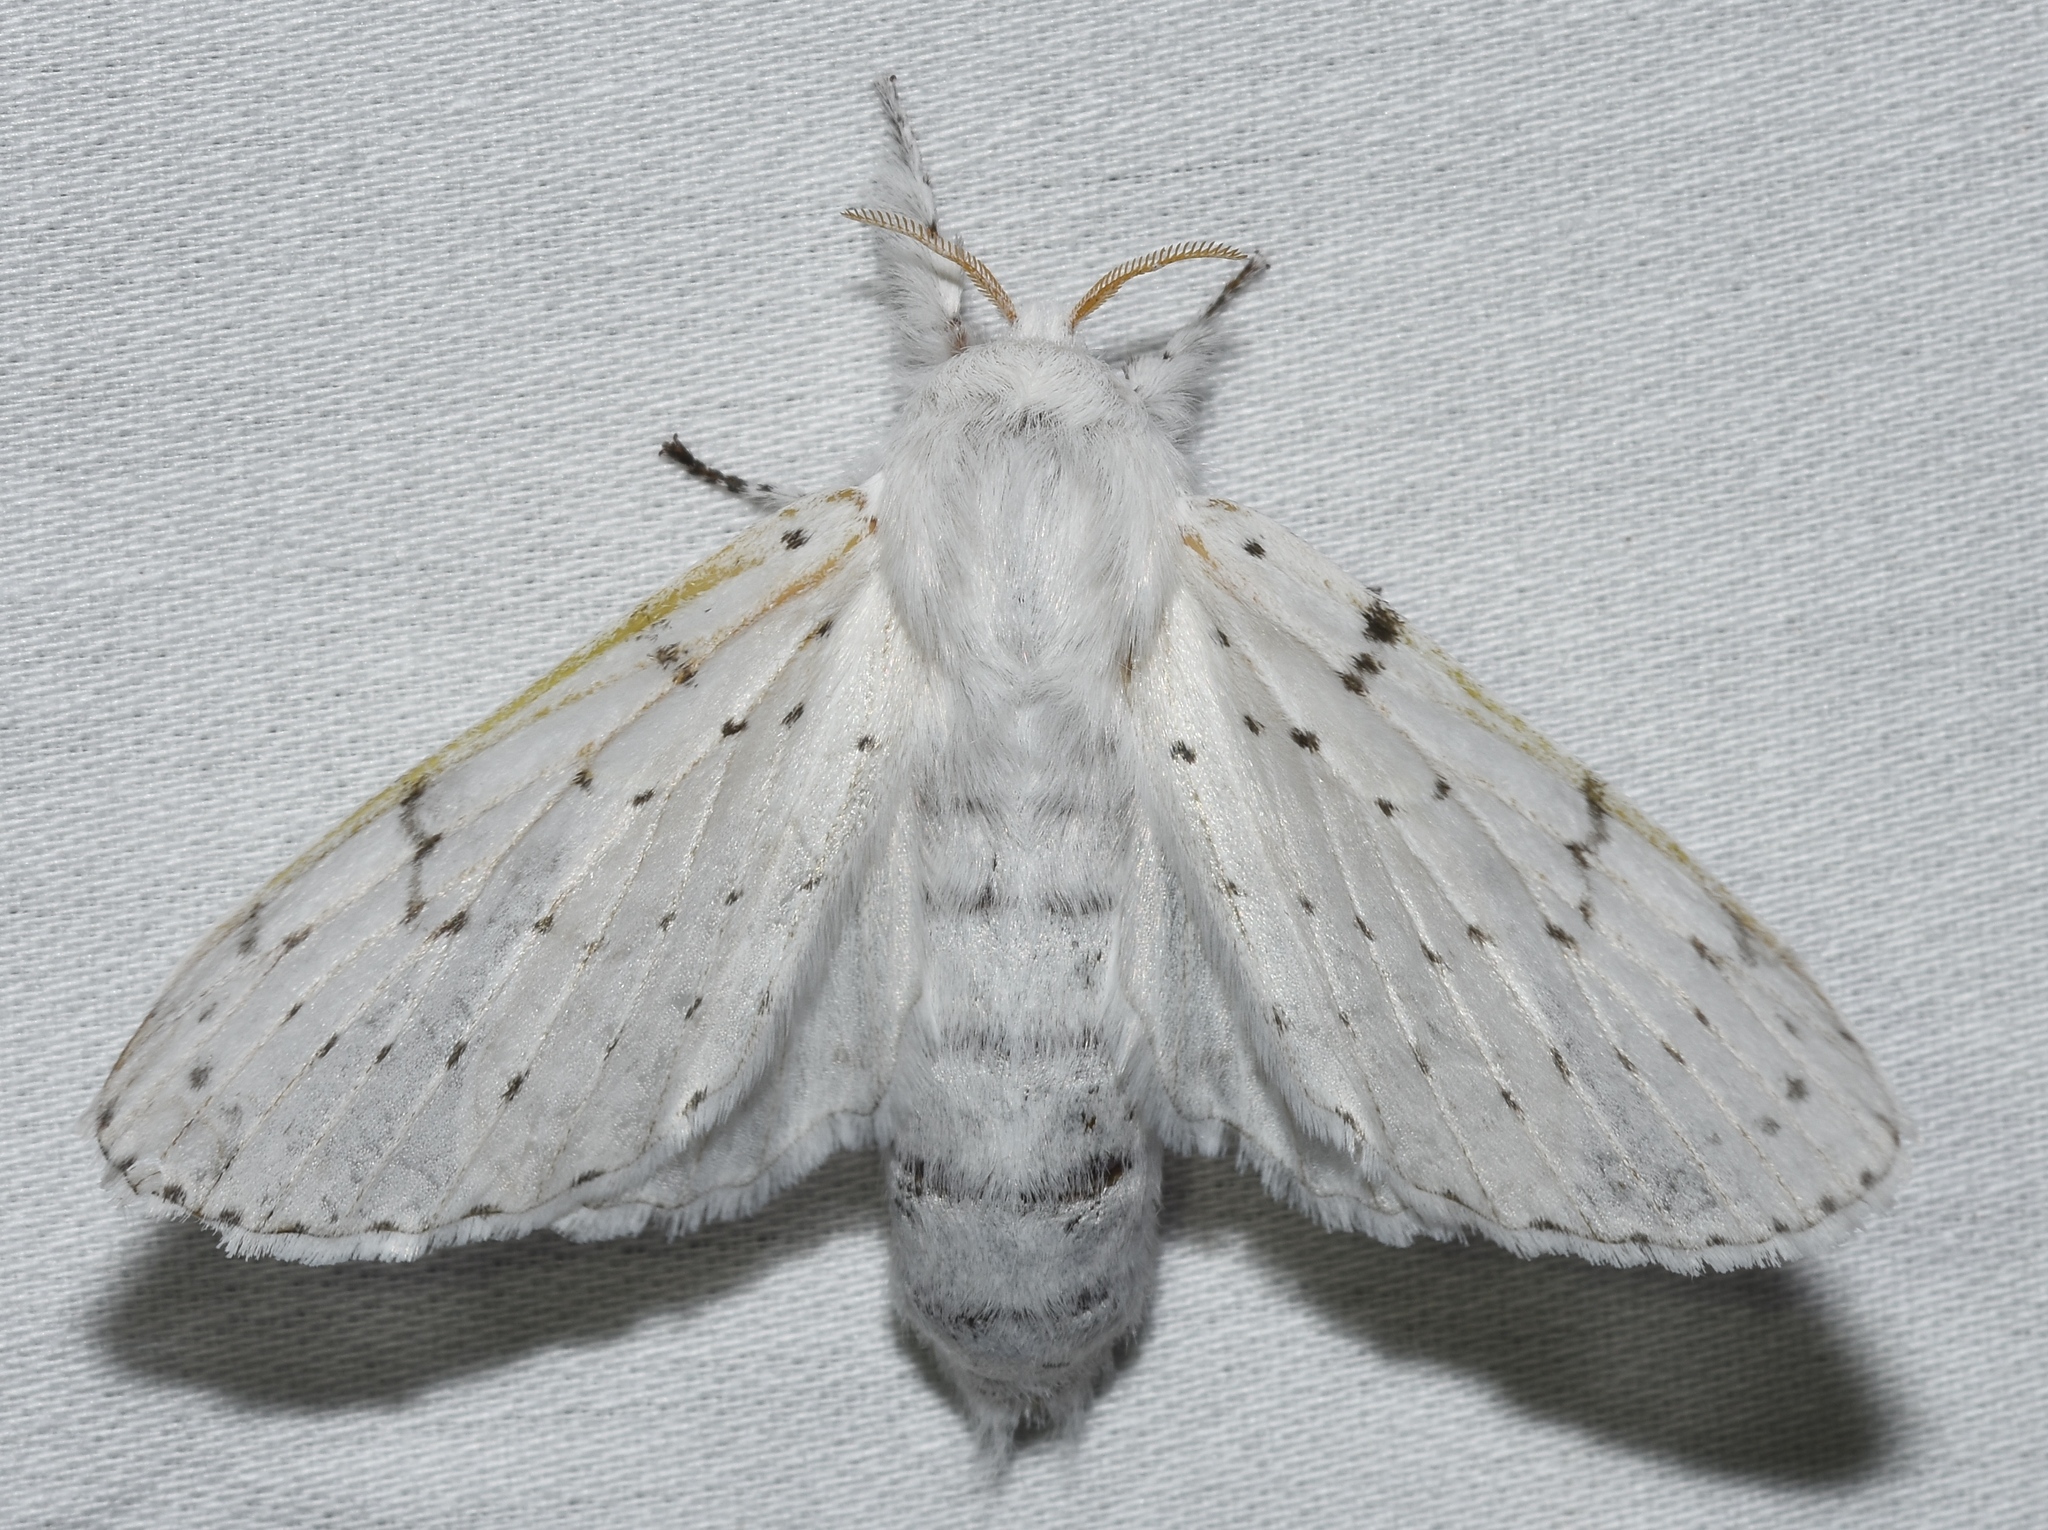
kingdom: Animalia
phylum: Arthropoda
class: Insecta
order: Lepidoptera
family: Lasiocampidae
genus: Artace
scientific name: Artace cribrarius
